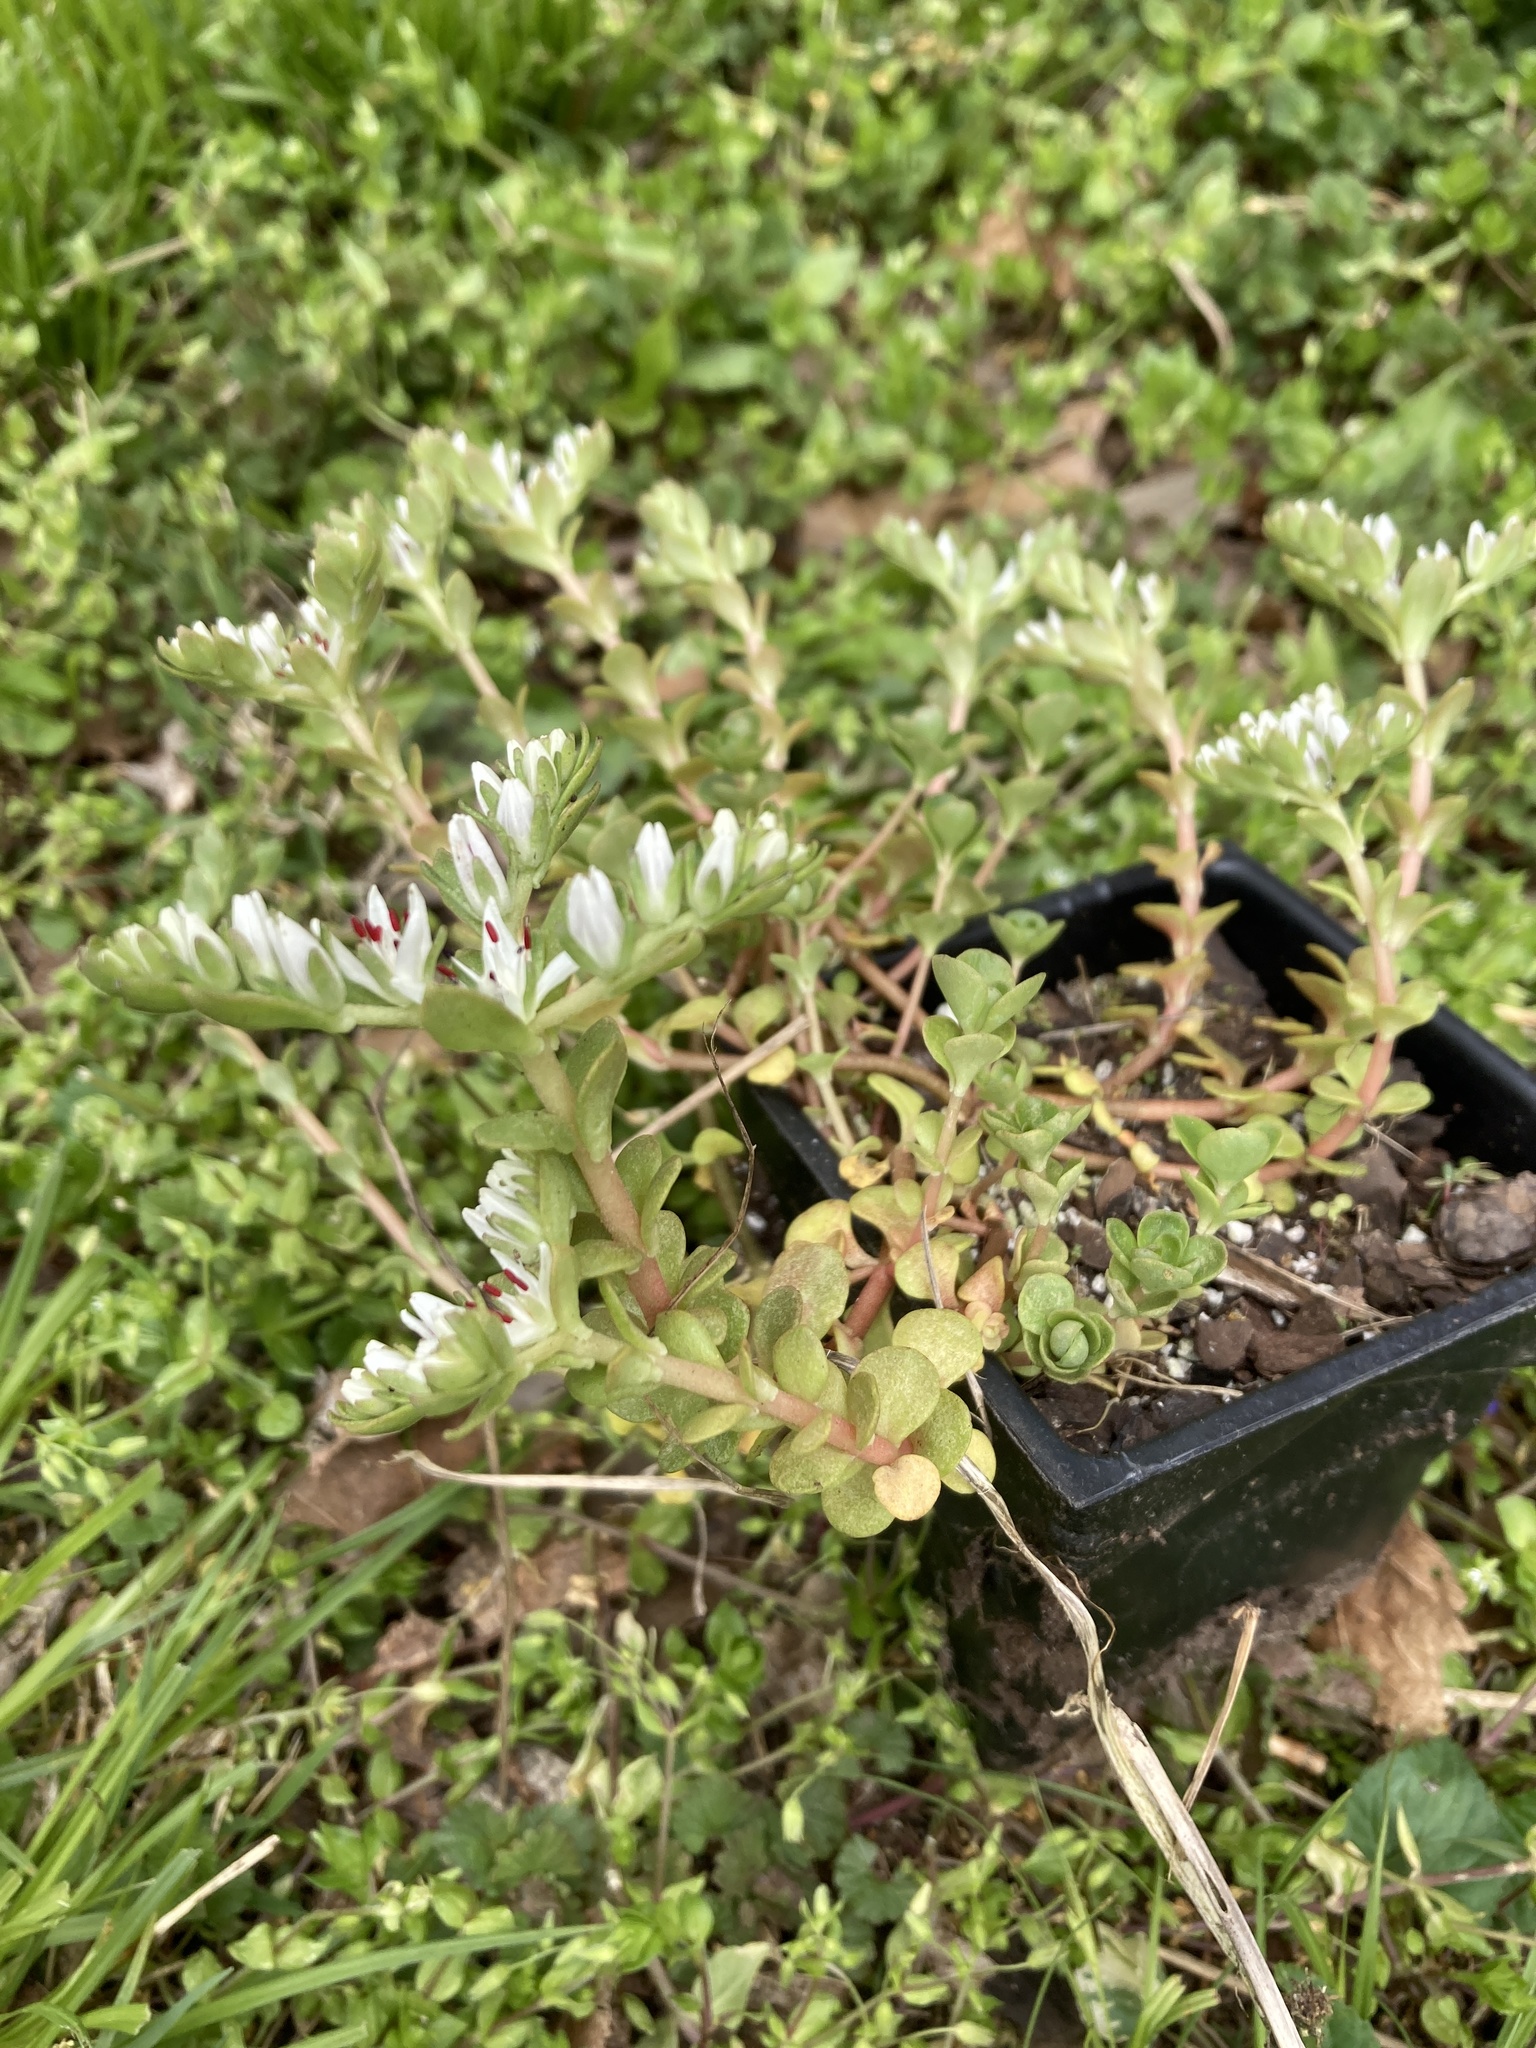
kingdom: Plantae
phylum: Tracheophyta
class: Magnoliopsida
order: Saxifragales
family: Crassulaceae
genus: Sedum
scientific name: Sedum ternatum
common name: Wild stonecrop
